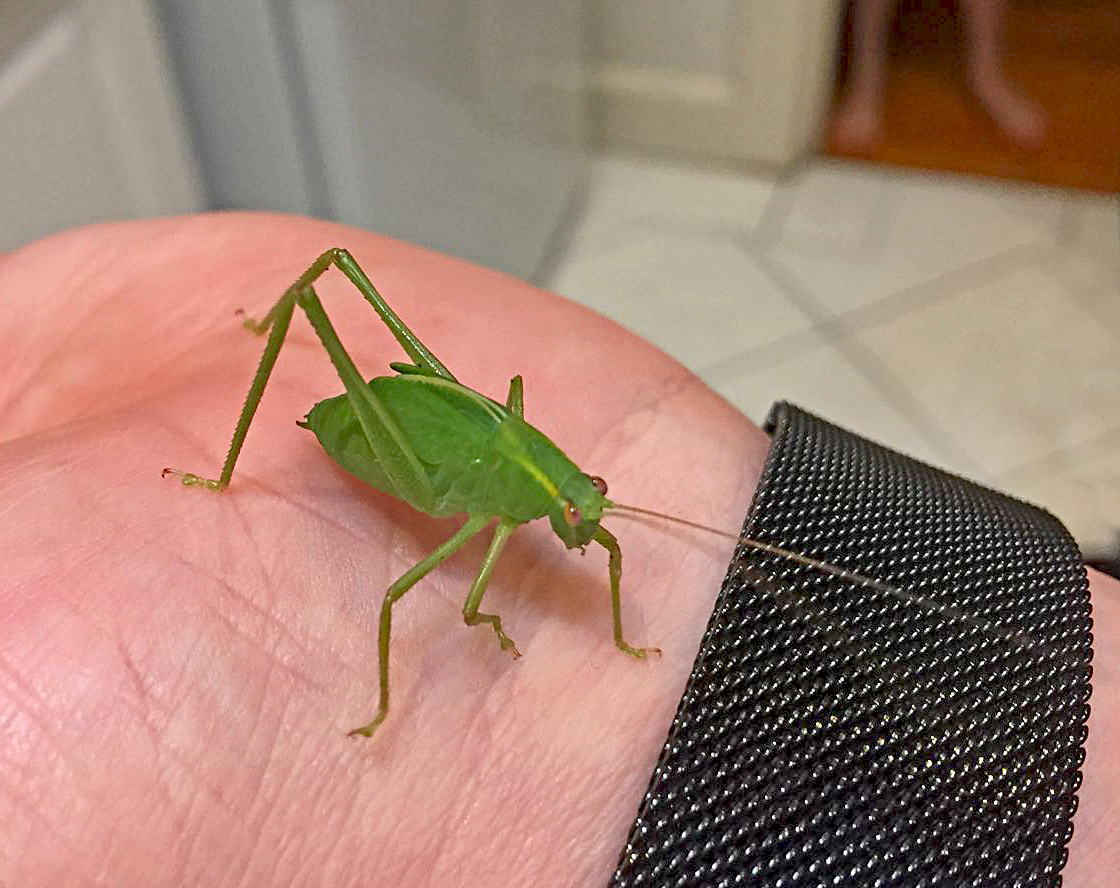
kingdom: Animalia
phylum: Arthropoda
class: Insecta
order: Orthoptera
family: Tettigoniidae
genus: Caedicia
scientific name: Caedicia simplex
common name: Common garden katydid
